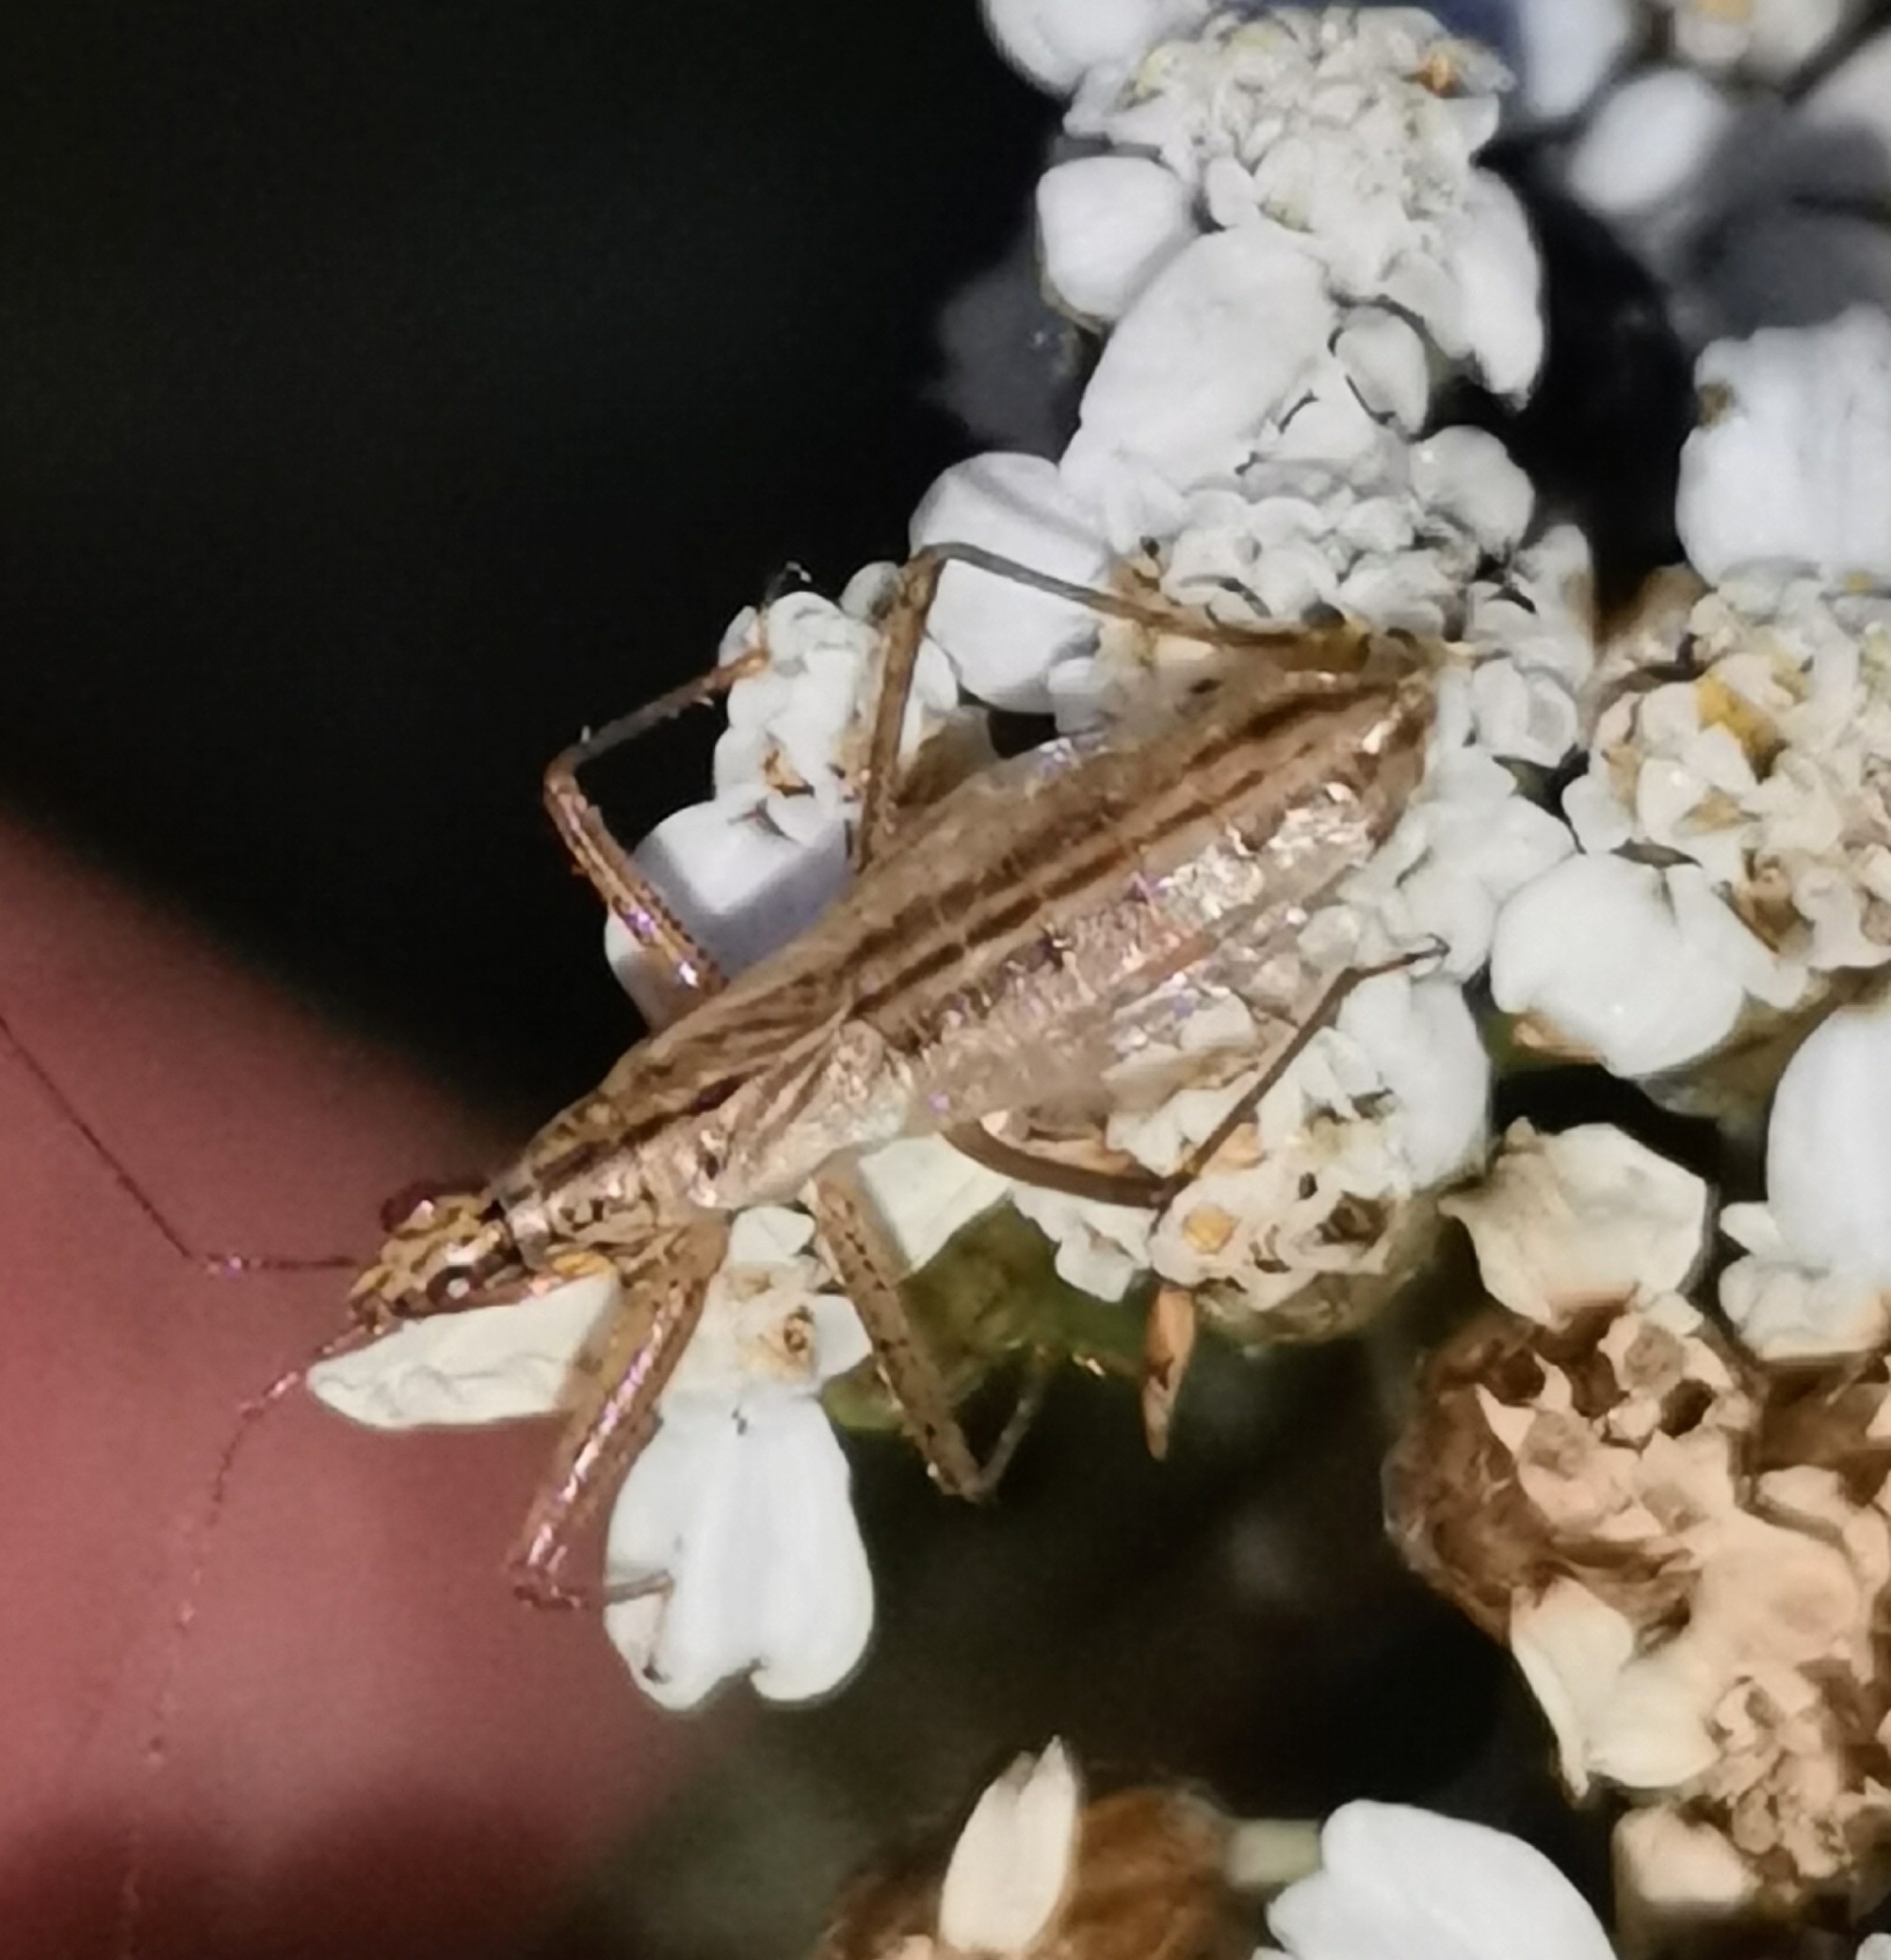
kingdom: Animalia
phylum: Arthropoda
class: Insecta
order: Hemiptera
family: Nabidae
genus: Nabis
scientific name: Nabis limbatus
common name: Marsh damselbug
